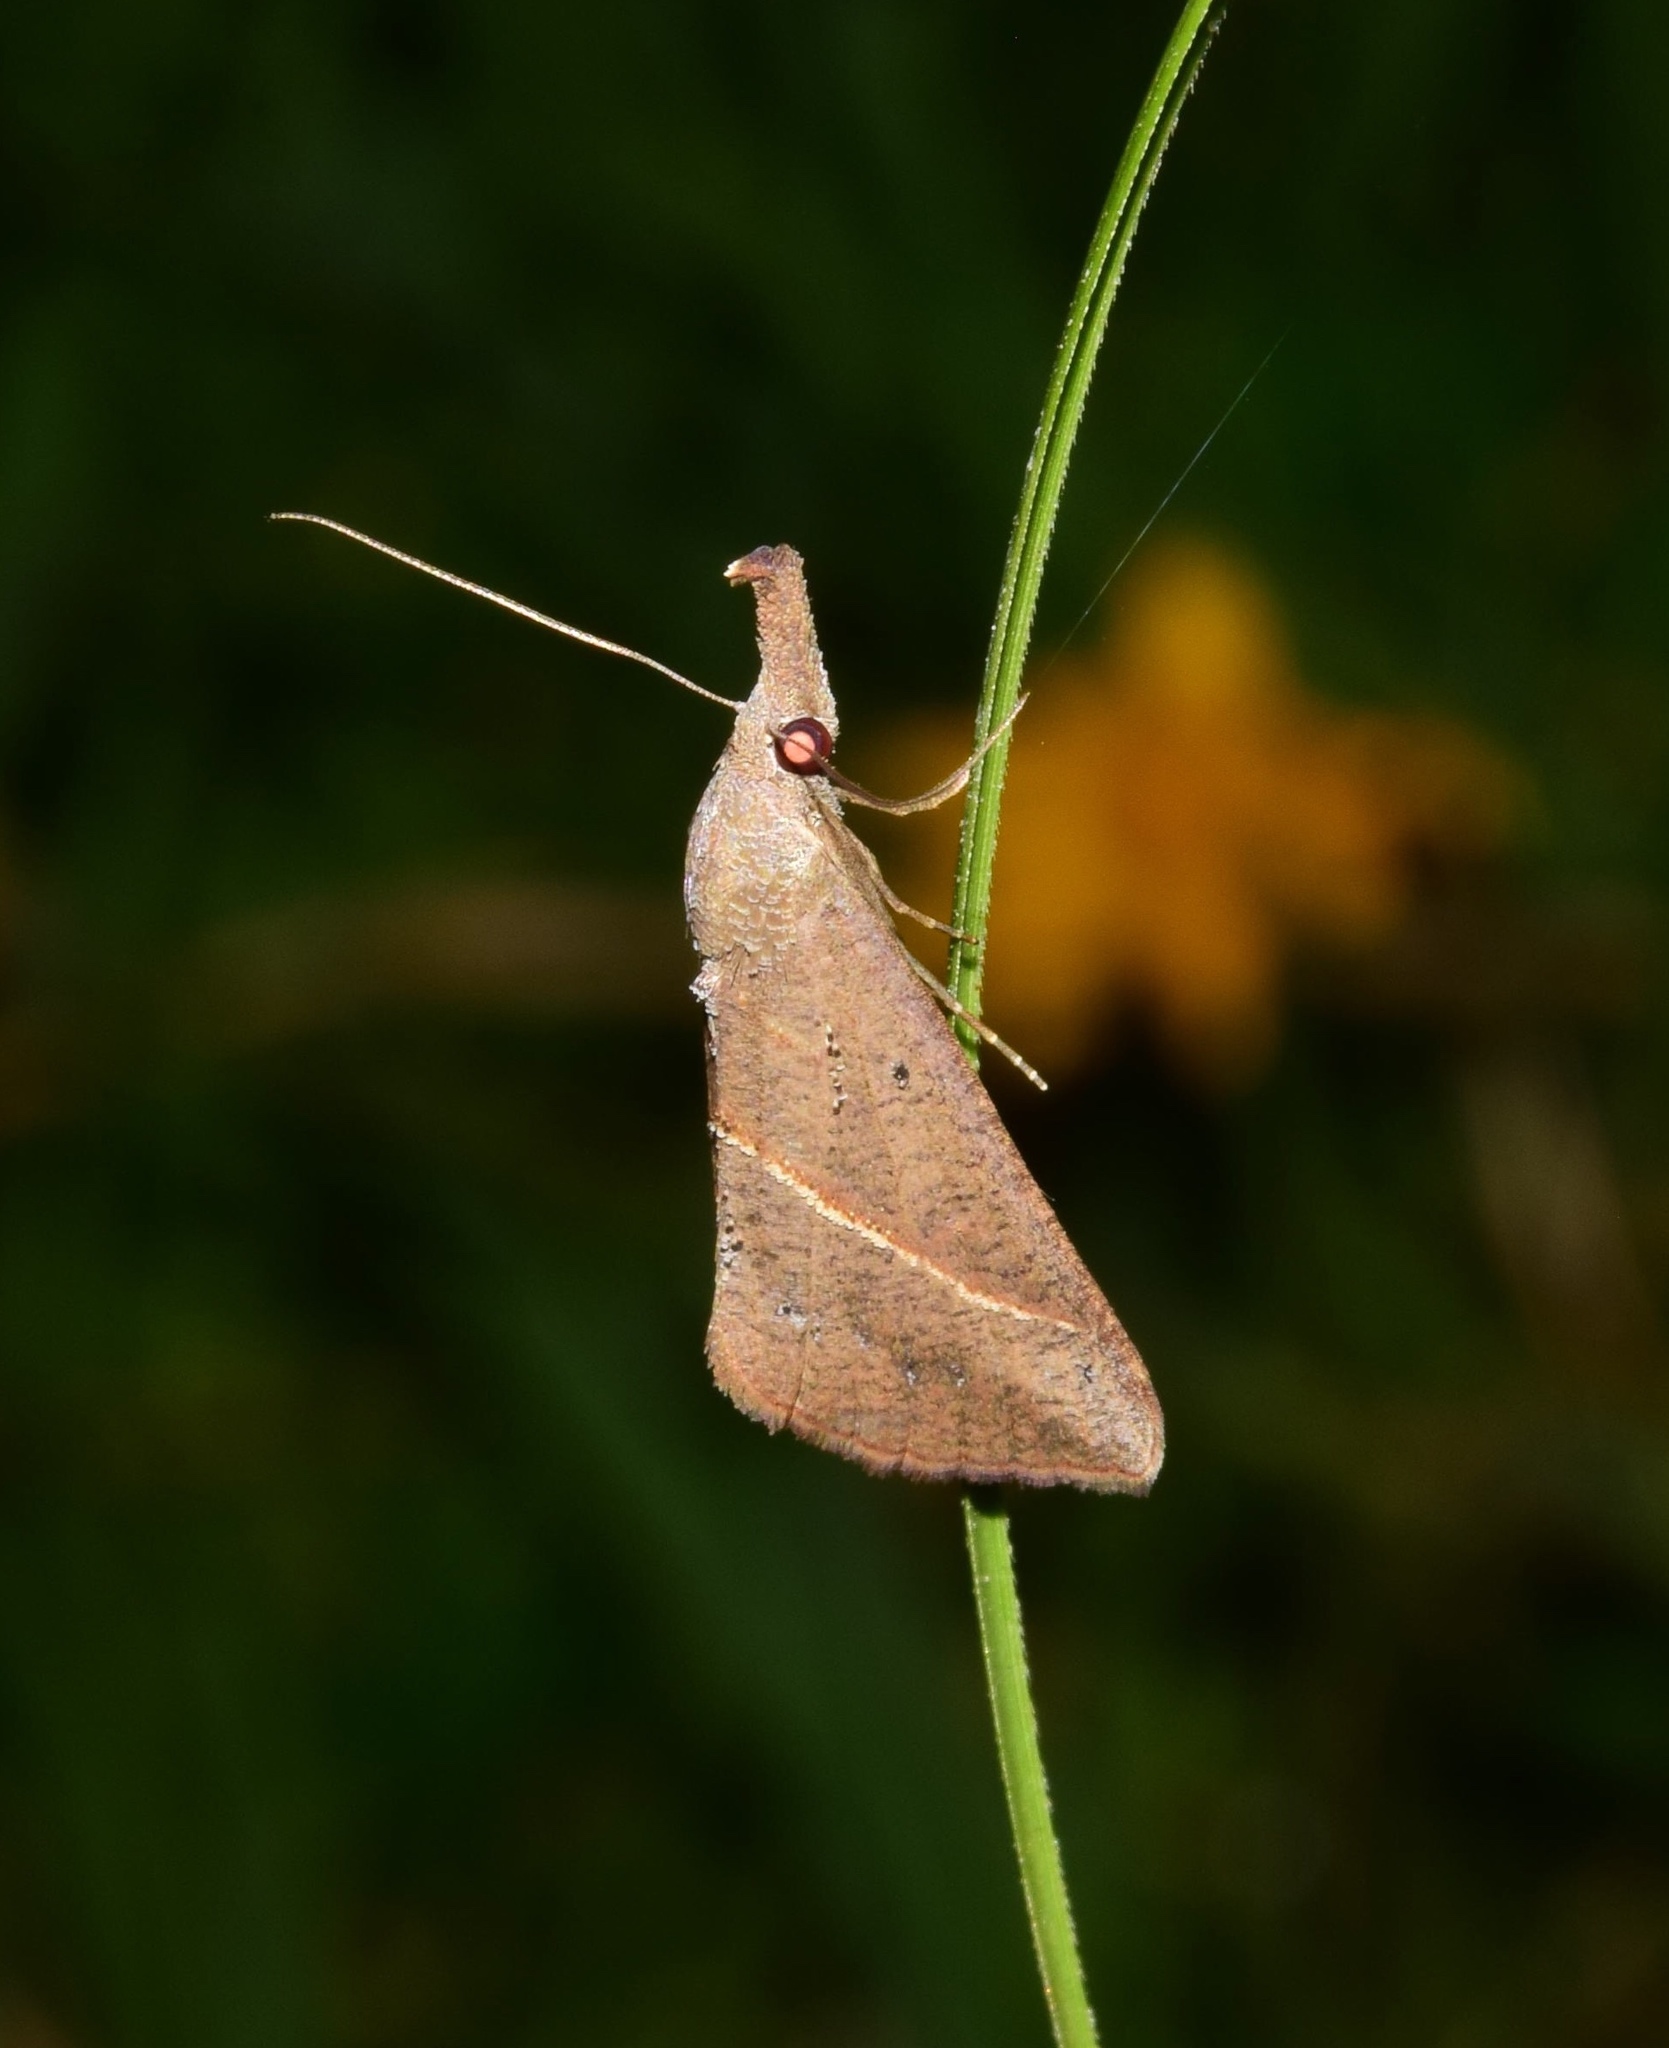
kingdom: Animalia
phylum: Arthropoda
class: Insecta
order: Lepidoptera
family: Erebidae
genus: Hypena
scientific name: Hypena laetalis
